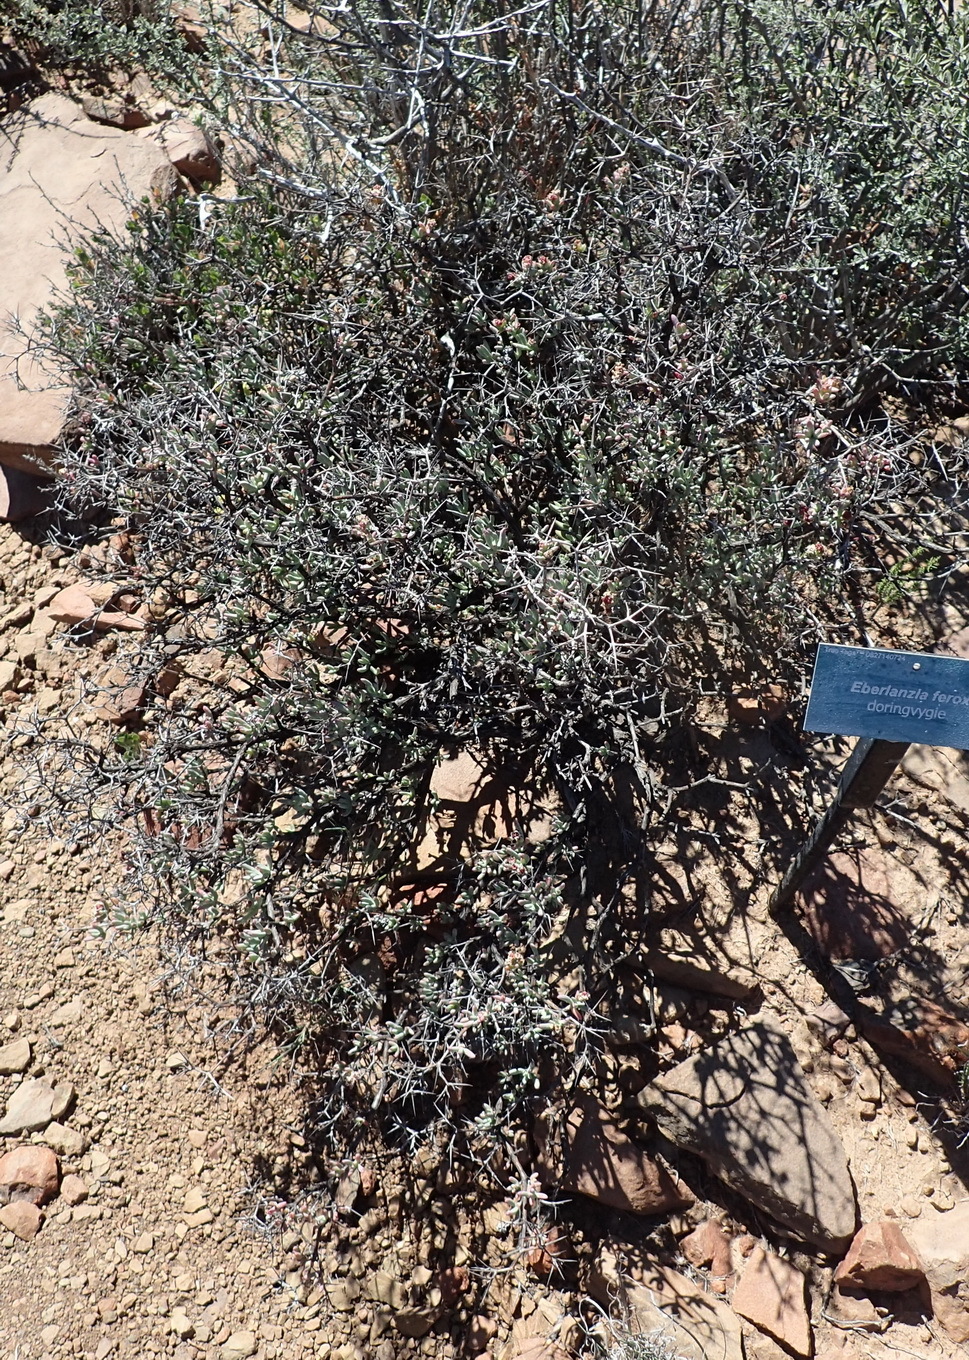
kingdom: Plantae
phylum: Tracheophyta
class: Magnoliopsida
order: Caryophyllales
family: Aizoaceae
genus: Ruschia
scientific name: Ruschia intricata
